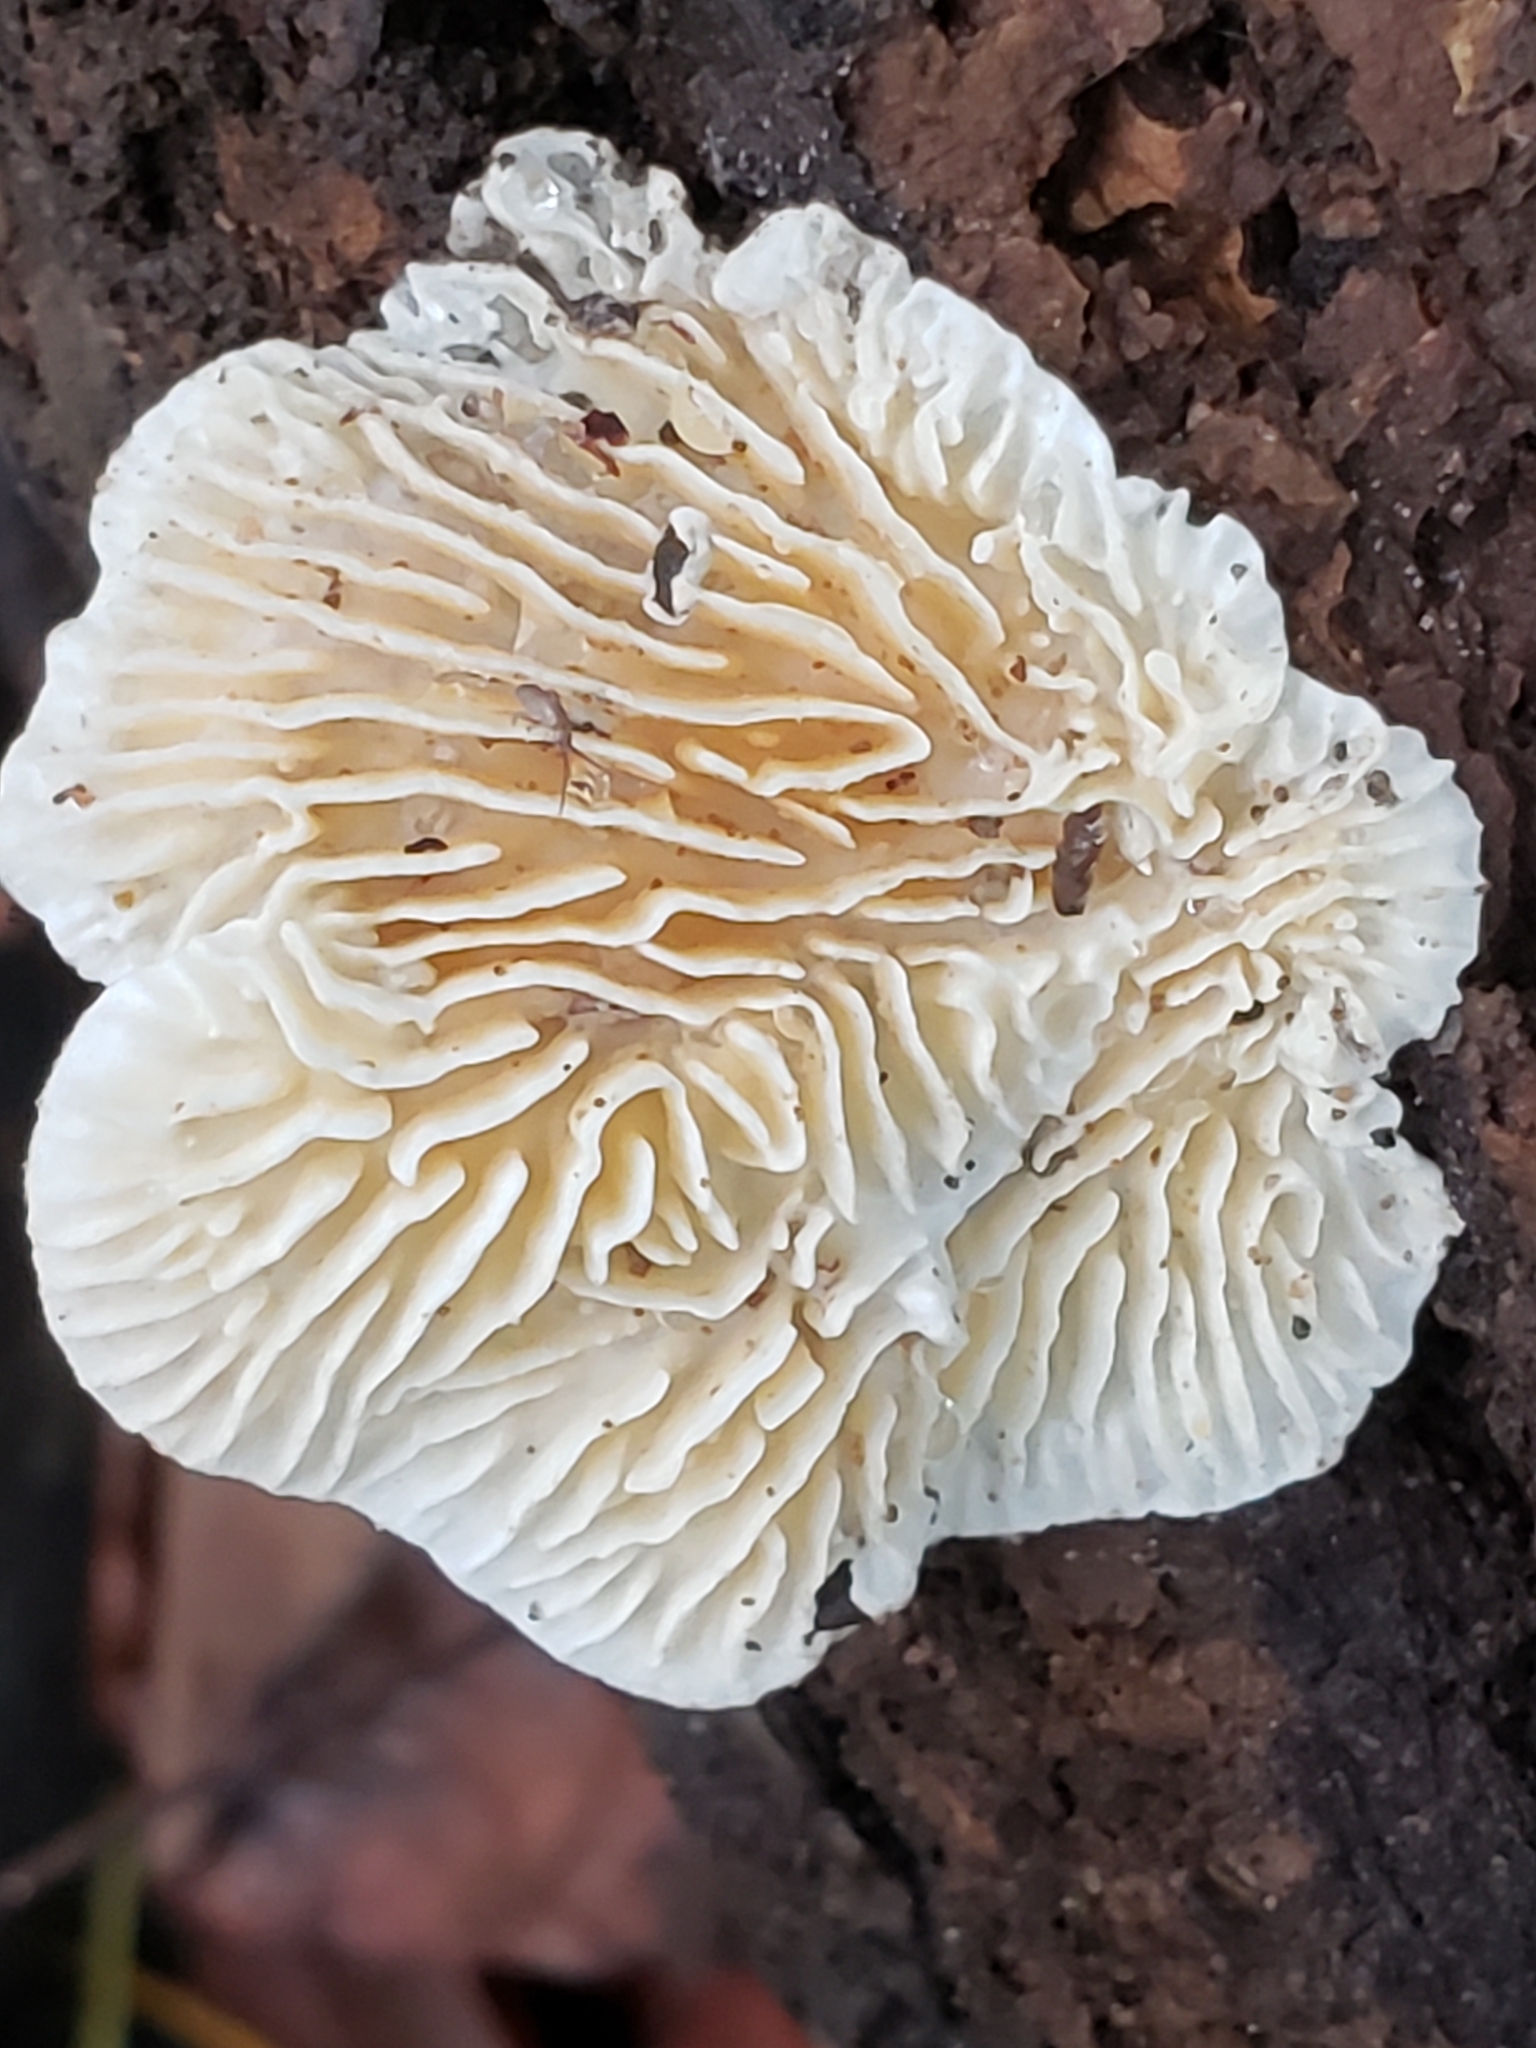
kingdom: Fungi
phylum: Basidiomycota
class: Agaricomycetes
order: Polyporales
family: Polyporaceae
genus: Lenzites
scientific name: Lenzites betulinus
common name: Birch mazegill
